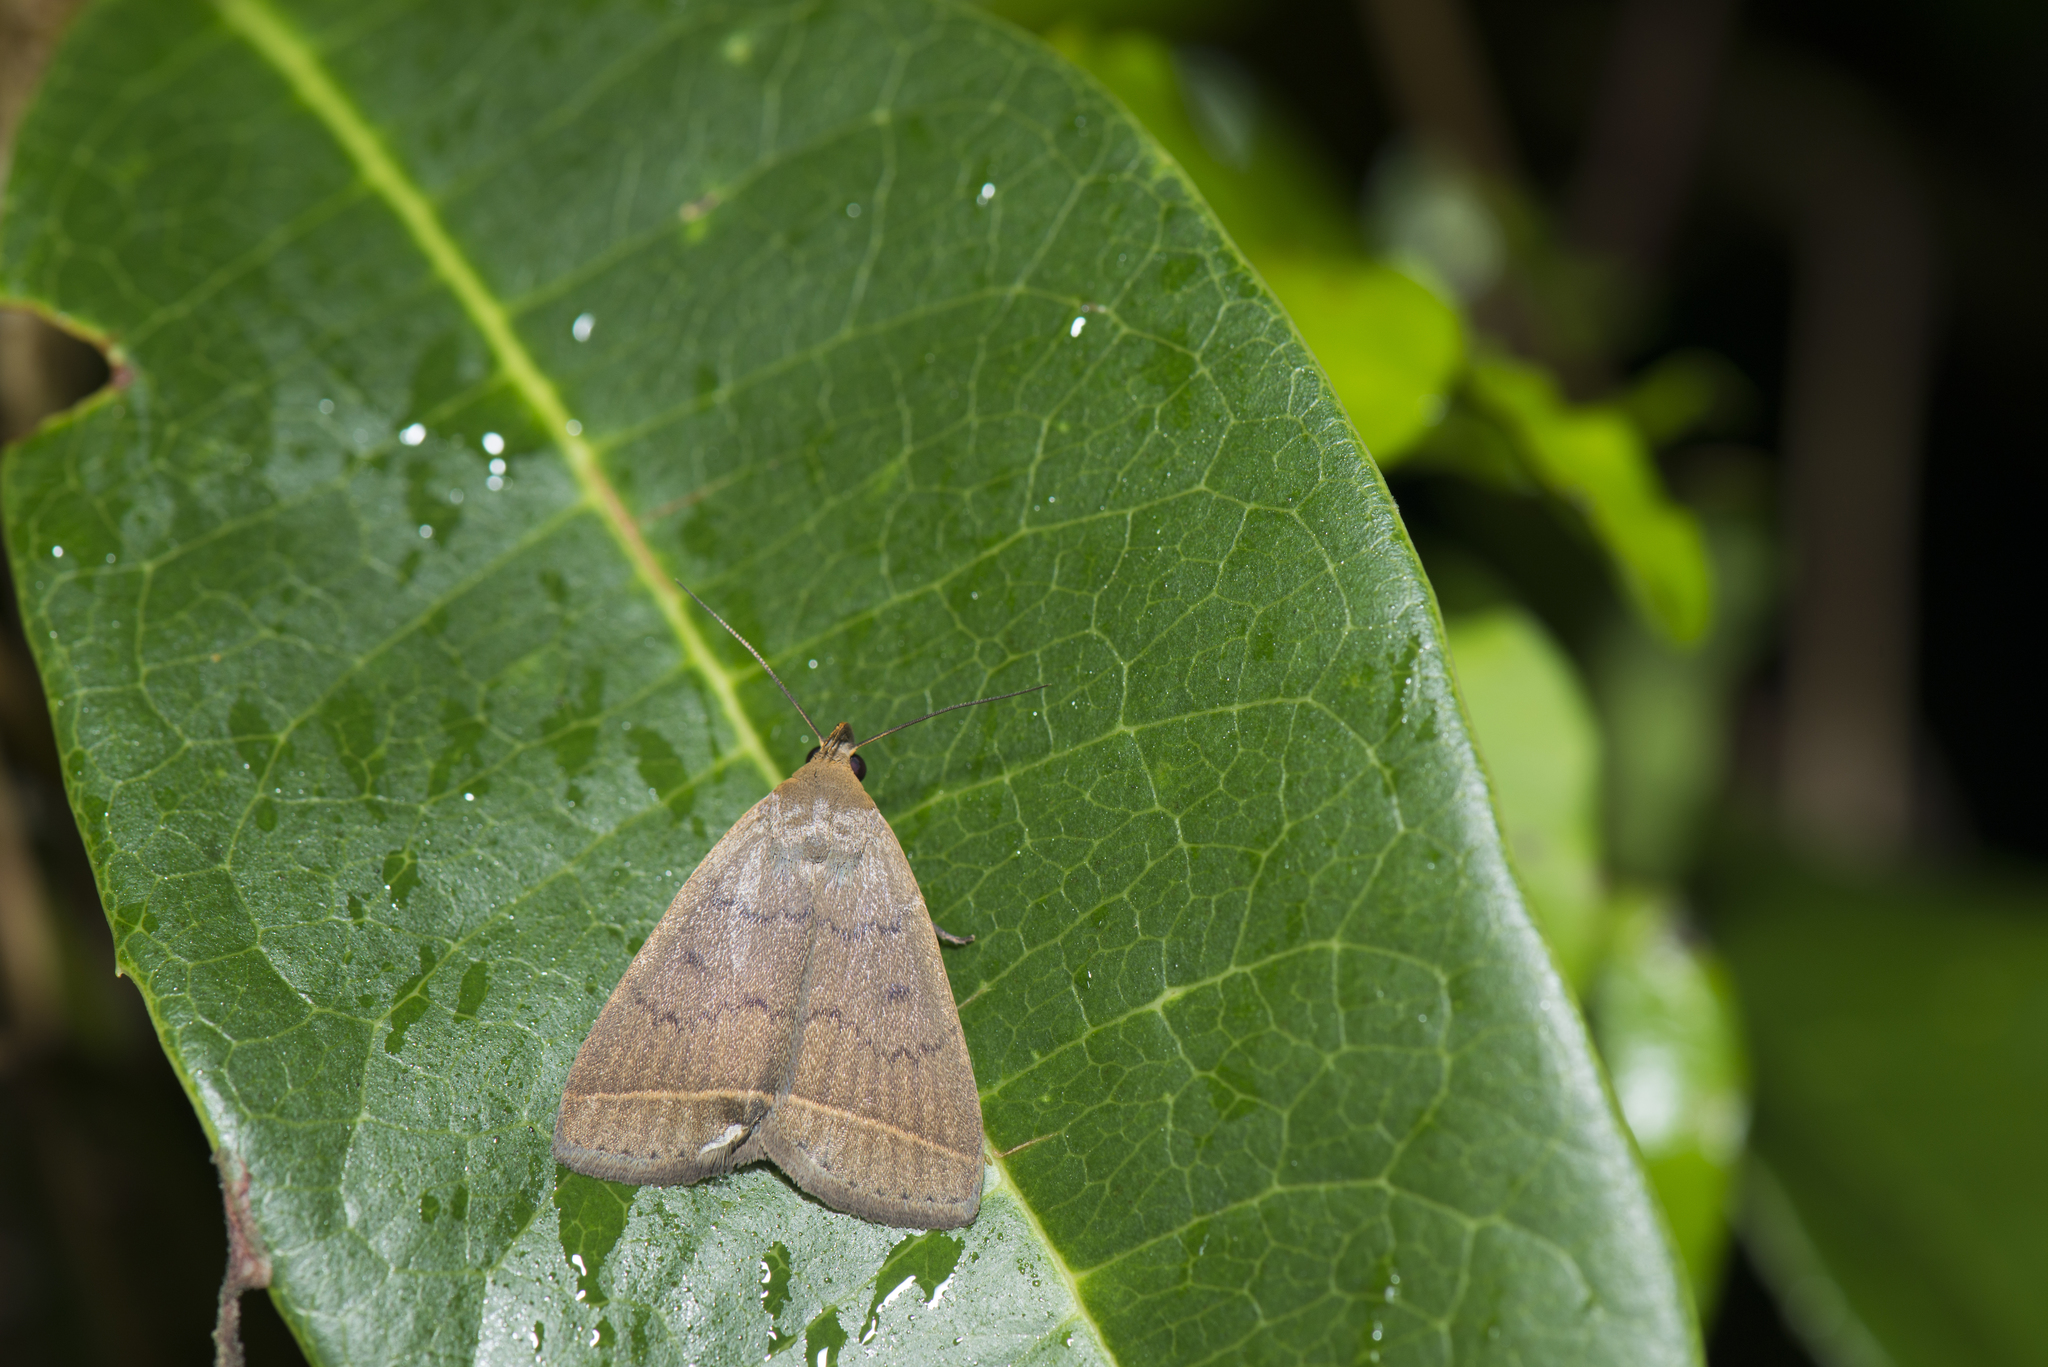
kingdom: Animalia
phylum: Arthropoda
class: Insecta
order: Lepidoptera
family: Erebidae
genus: Simplicia
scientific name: Simplicia xanthoma
